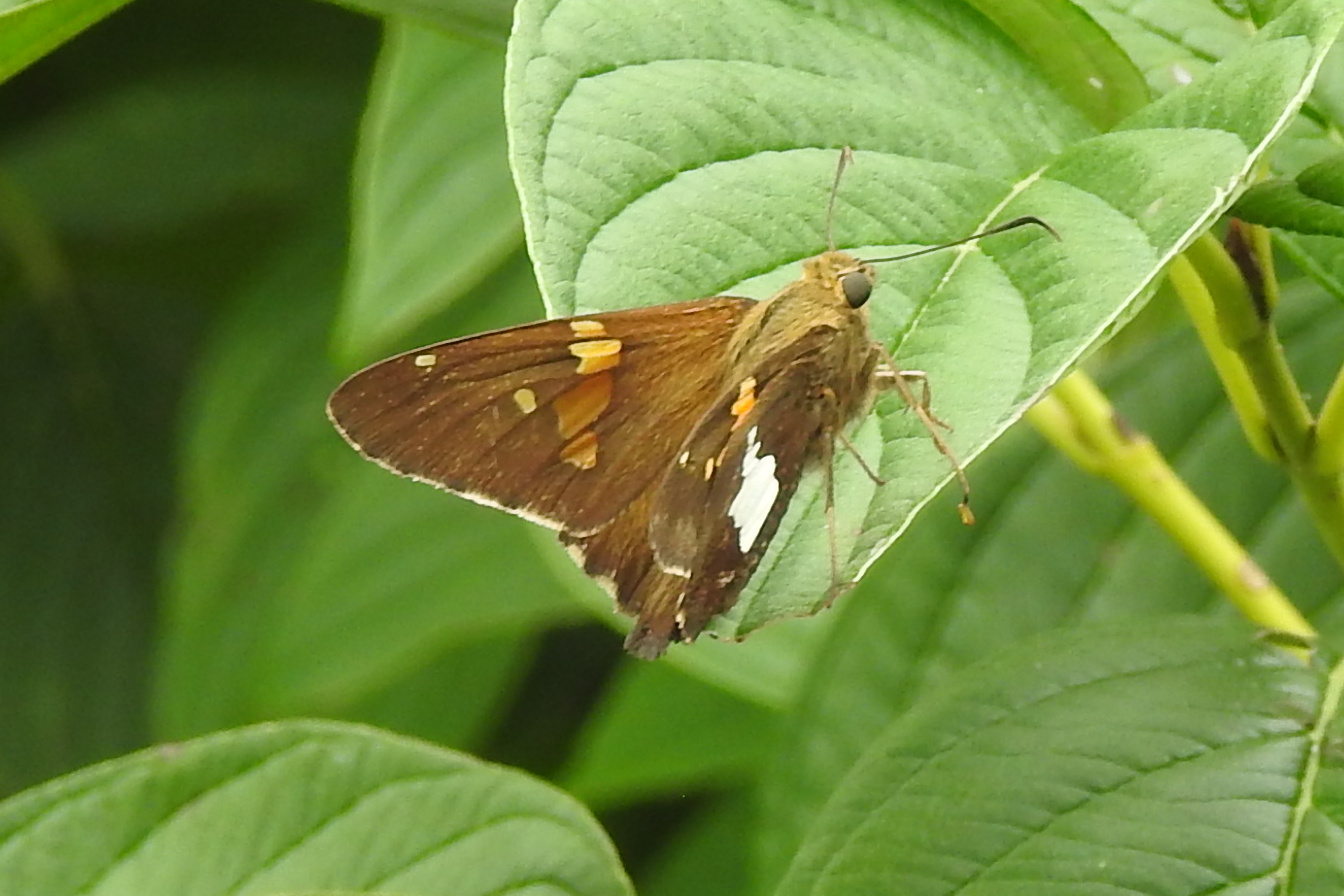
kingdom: Animalia
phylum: Arthropoda
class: Insecta
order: Lepidoptera
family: Hesperiidae
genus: Epargyreus
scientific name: Epargyreus clarus
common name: Silver-spotted skipper
